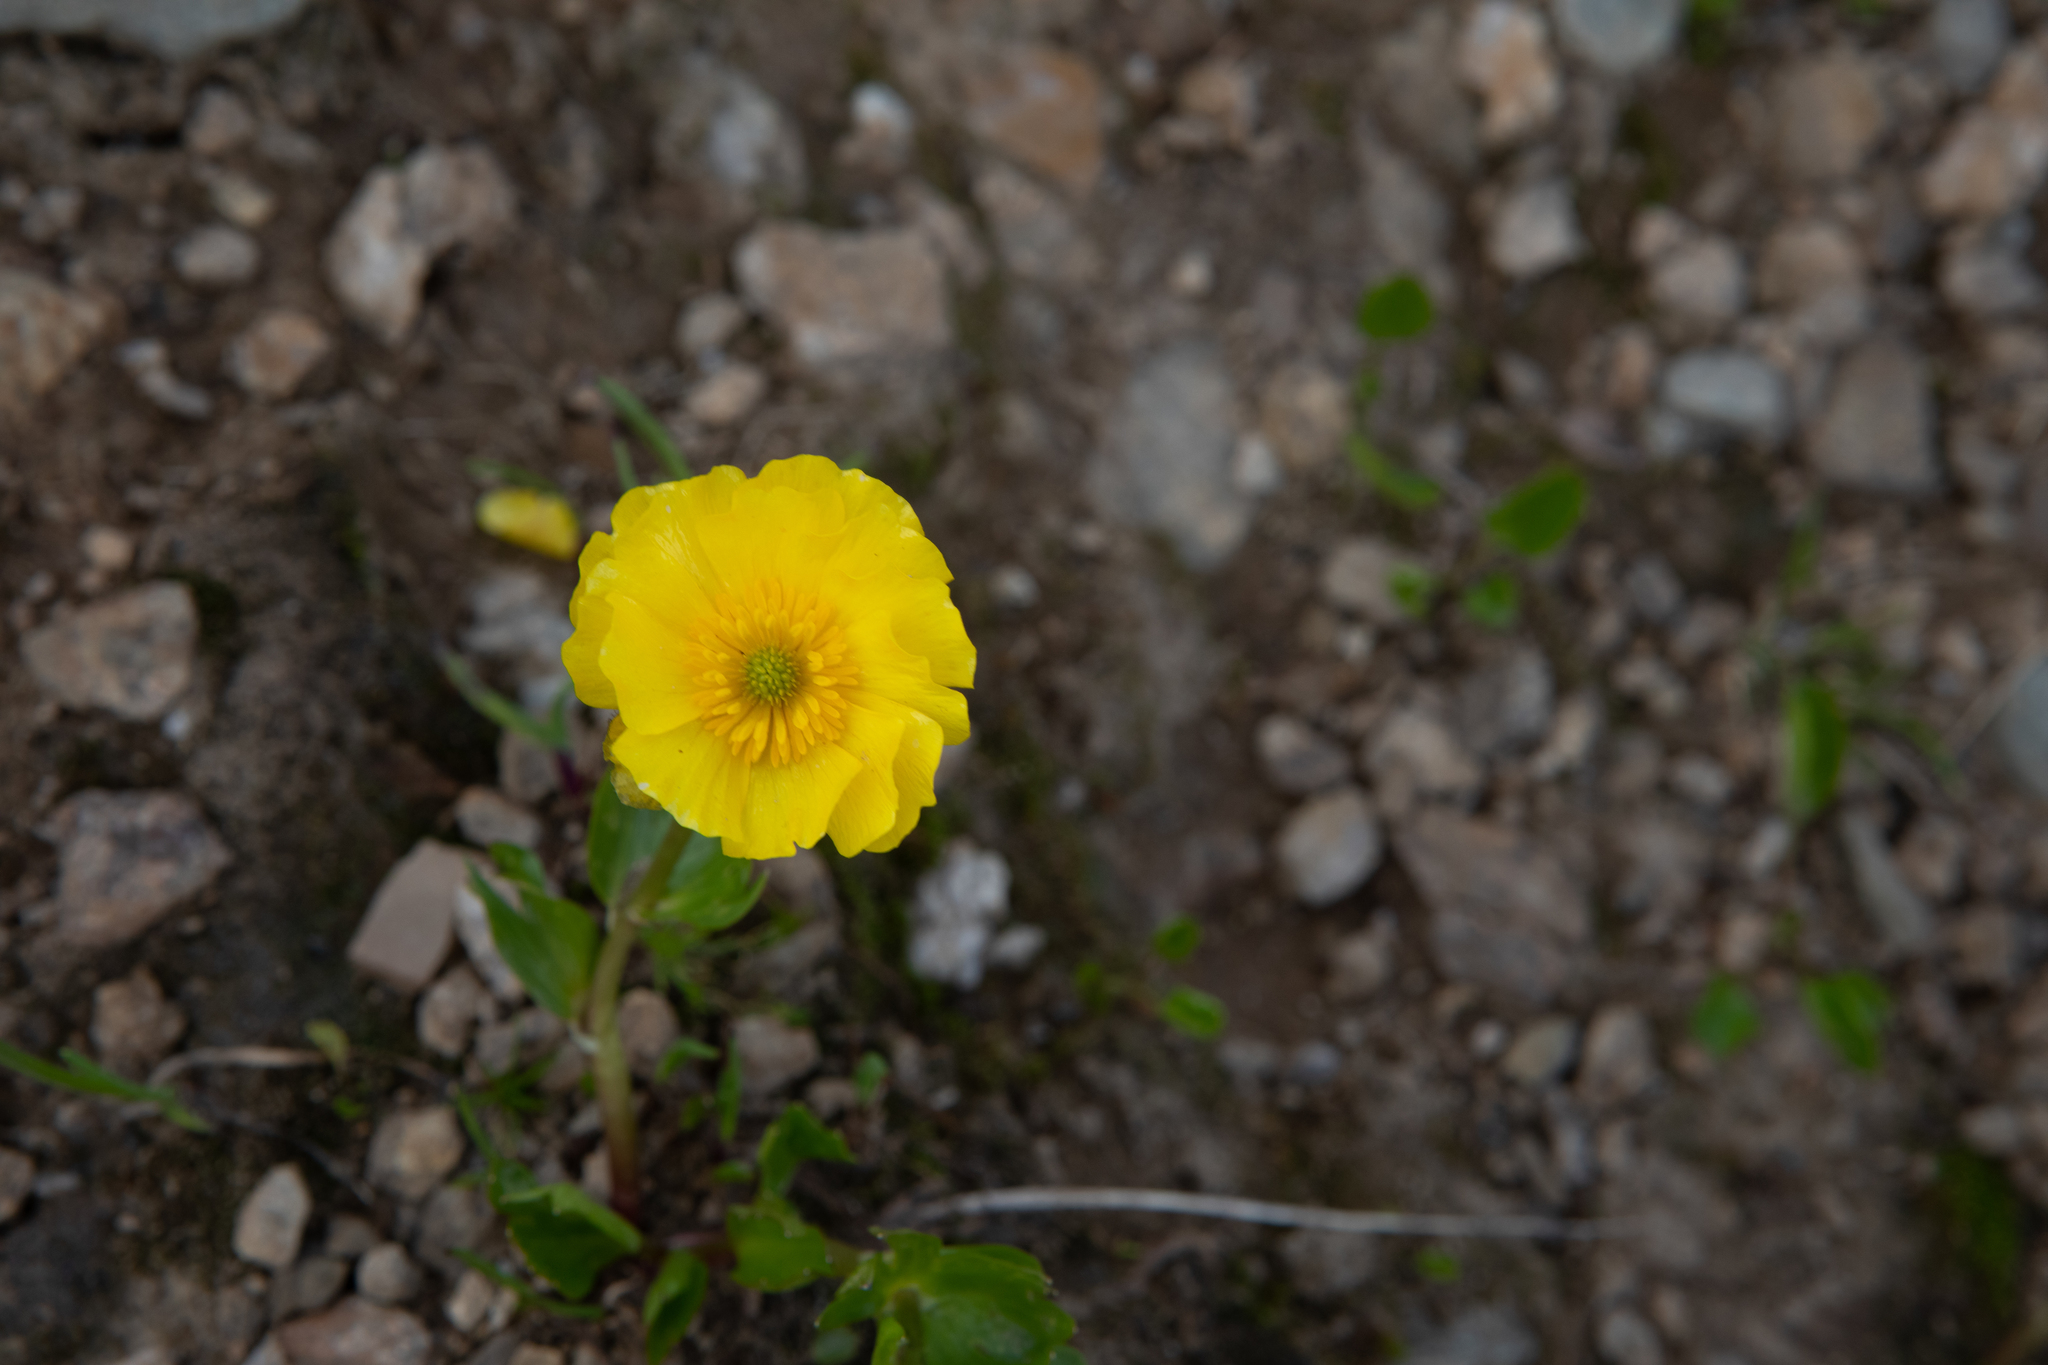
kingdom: Plantae
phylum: Tracheophyta
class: Magnoliopsida
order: Ranunculales
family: Ranunculaceae
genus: Ranunculus
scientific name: Ranunculus altaicus
